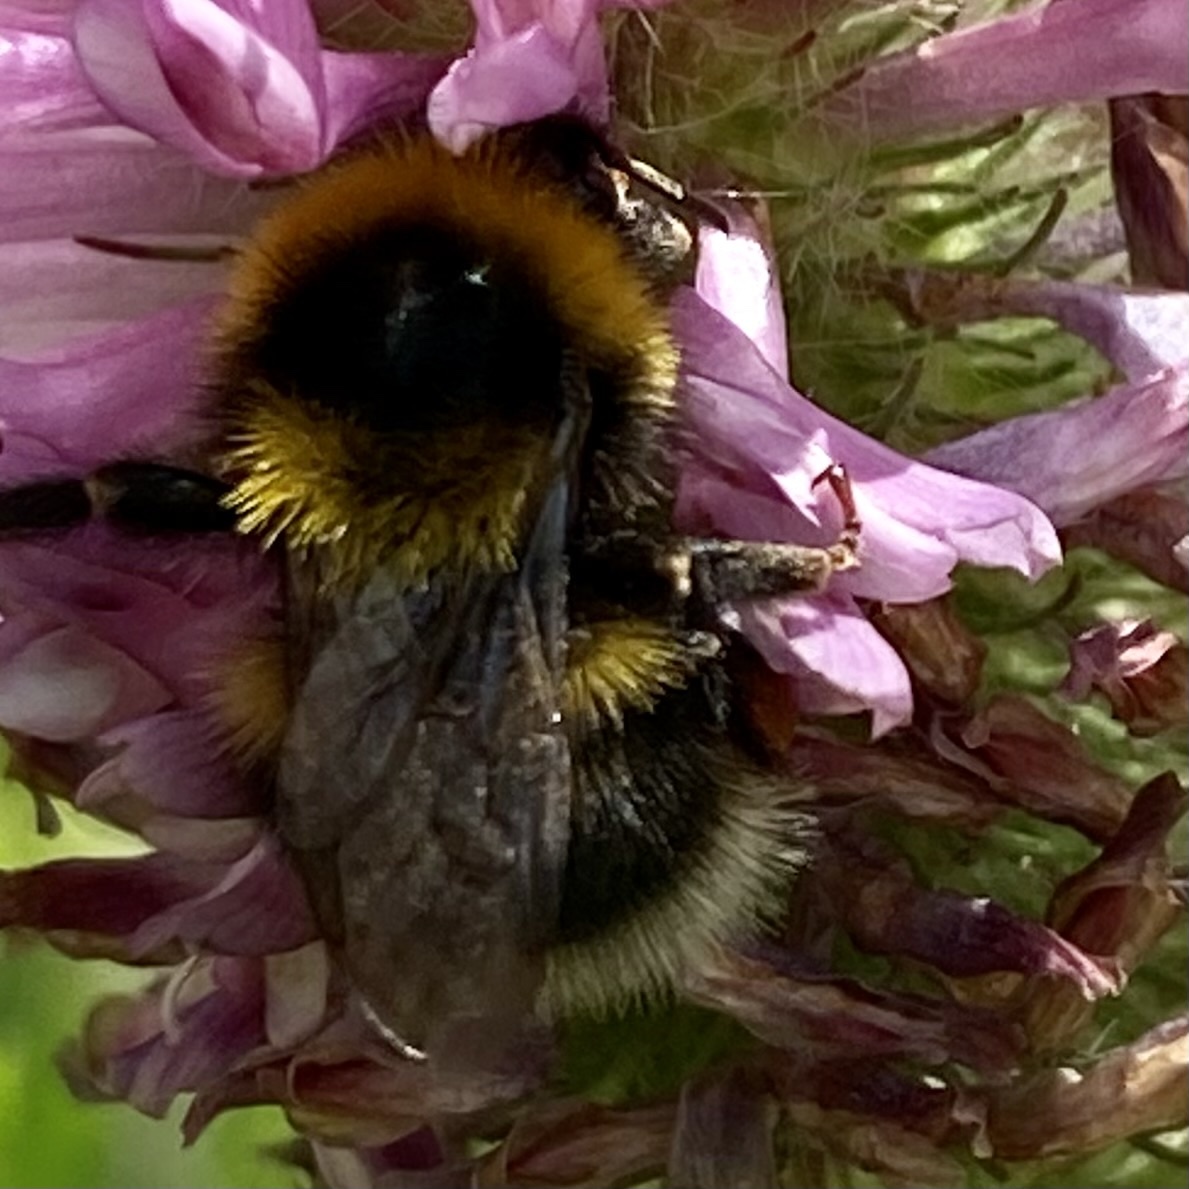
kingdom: Animalia
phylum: Arthropoda
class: Insecta
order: Hymenoptera
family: Apidae
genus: Bombus
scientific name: Bombus
